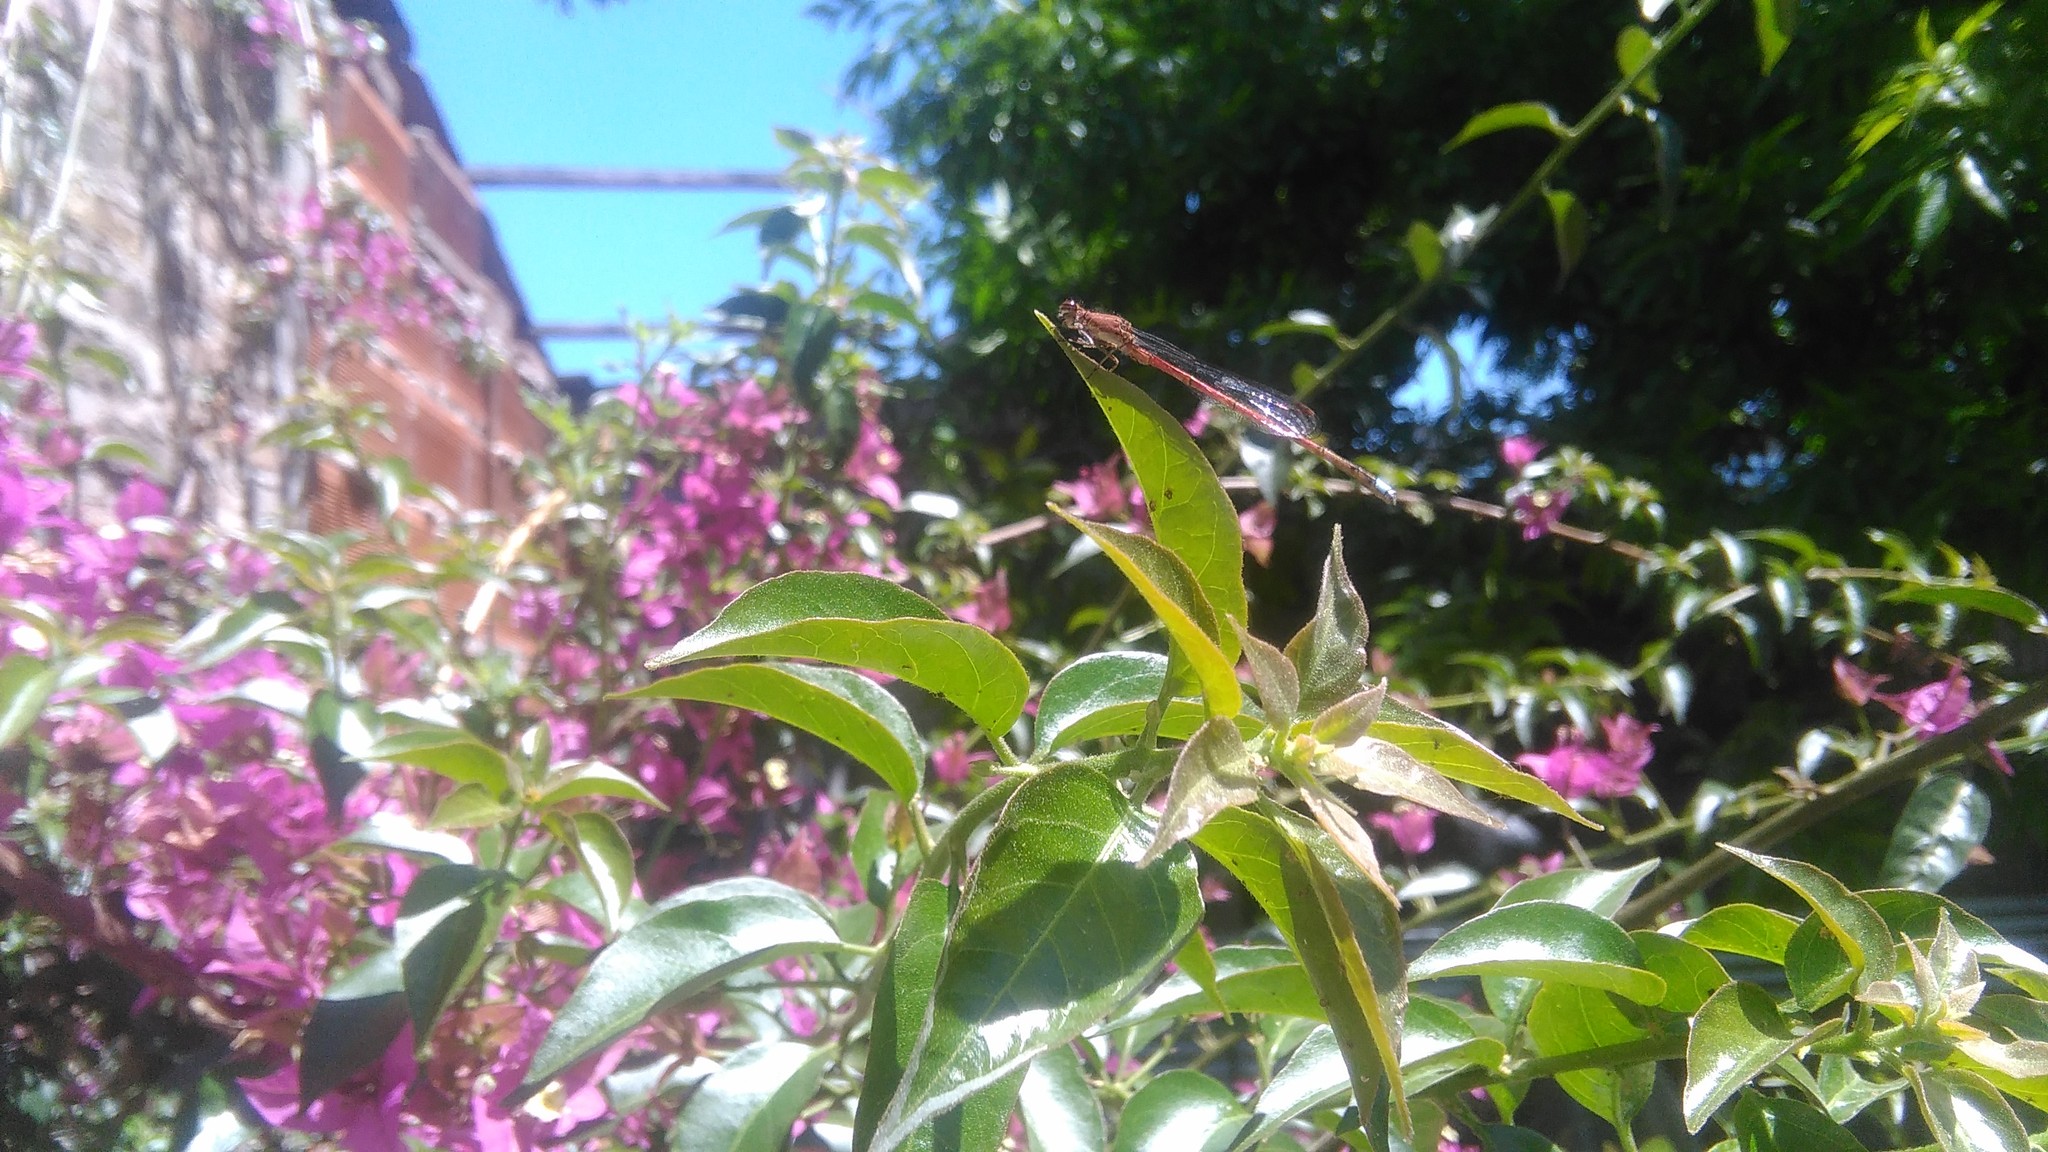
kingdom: Animalia
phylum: Arthropoda
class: Insecta
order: Odonata
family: Coenagrionidae
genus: Oxyagrion
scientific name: Oxyagrion terminale
